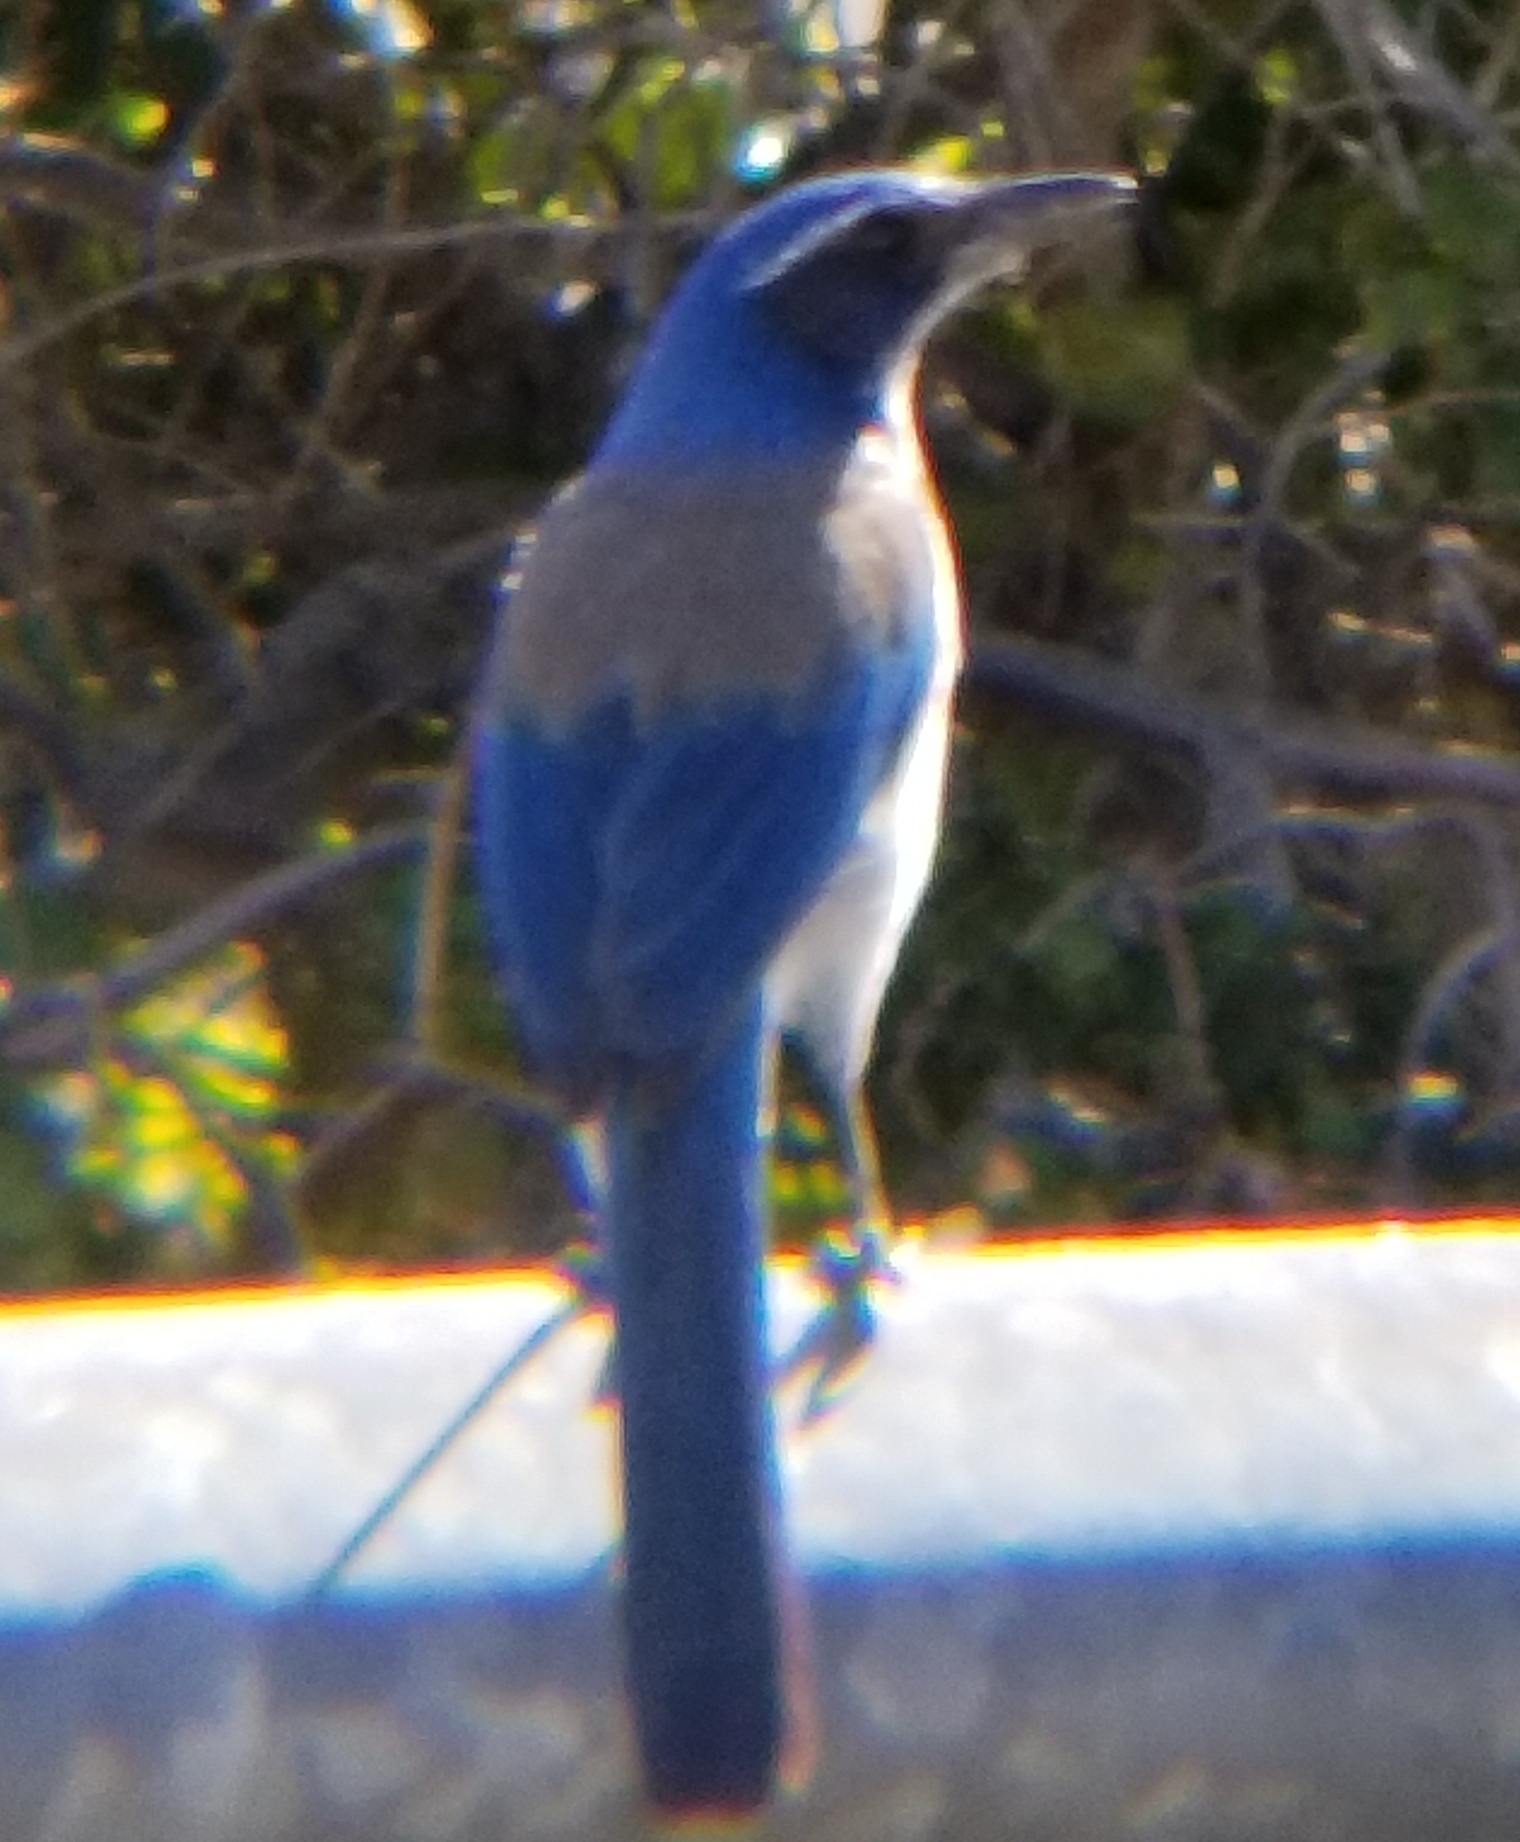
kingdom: Animalia
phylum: Chordata
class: Aves
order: Passeriformes
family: Corvidae
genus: Aphelocoma
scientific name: Aphelocoma californica
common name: California scrub-jay
